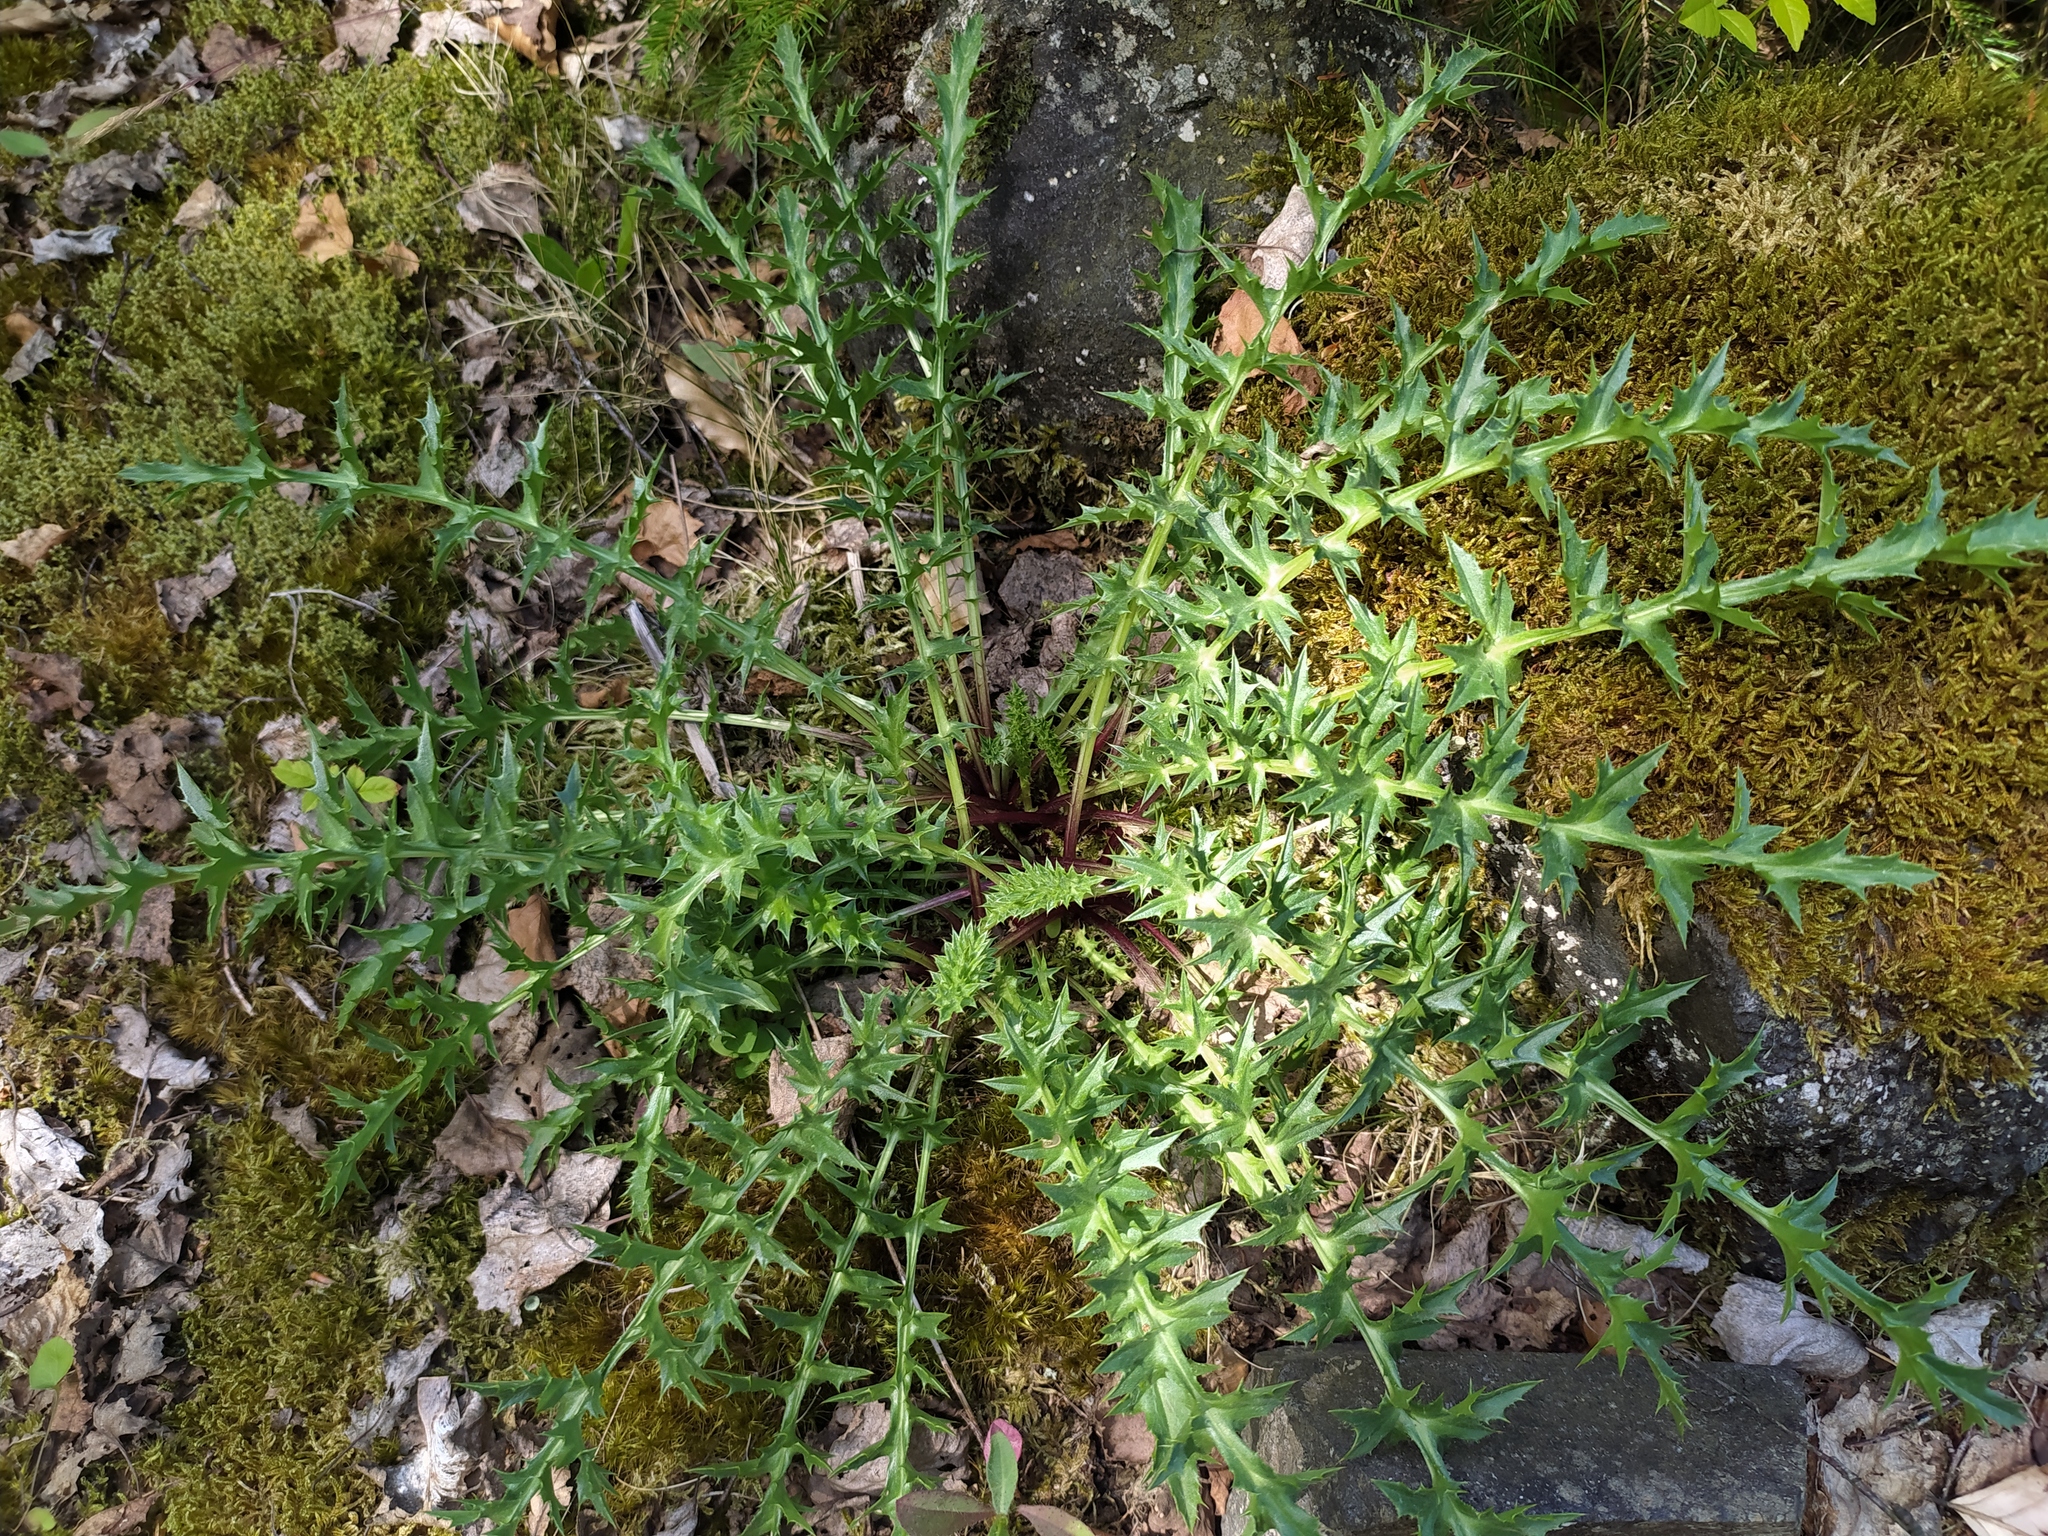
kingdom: Plantae
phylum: Tracheophyta
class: Magnoliopsida
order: Asterales
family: Asteraceae
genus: Carlina
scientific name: Carlina acaulis
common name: Stemless carline thistle
